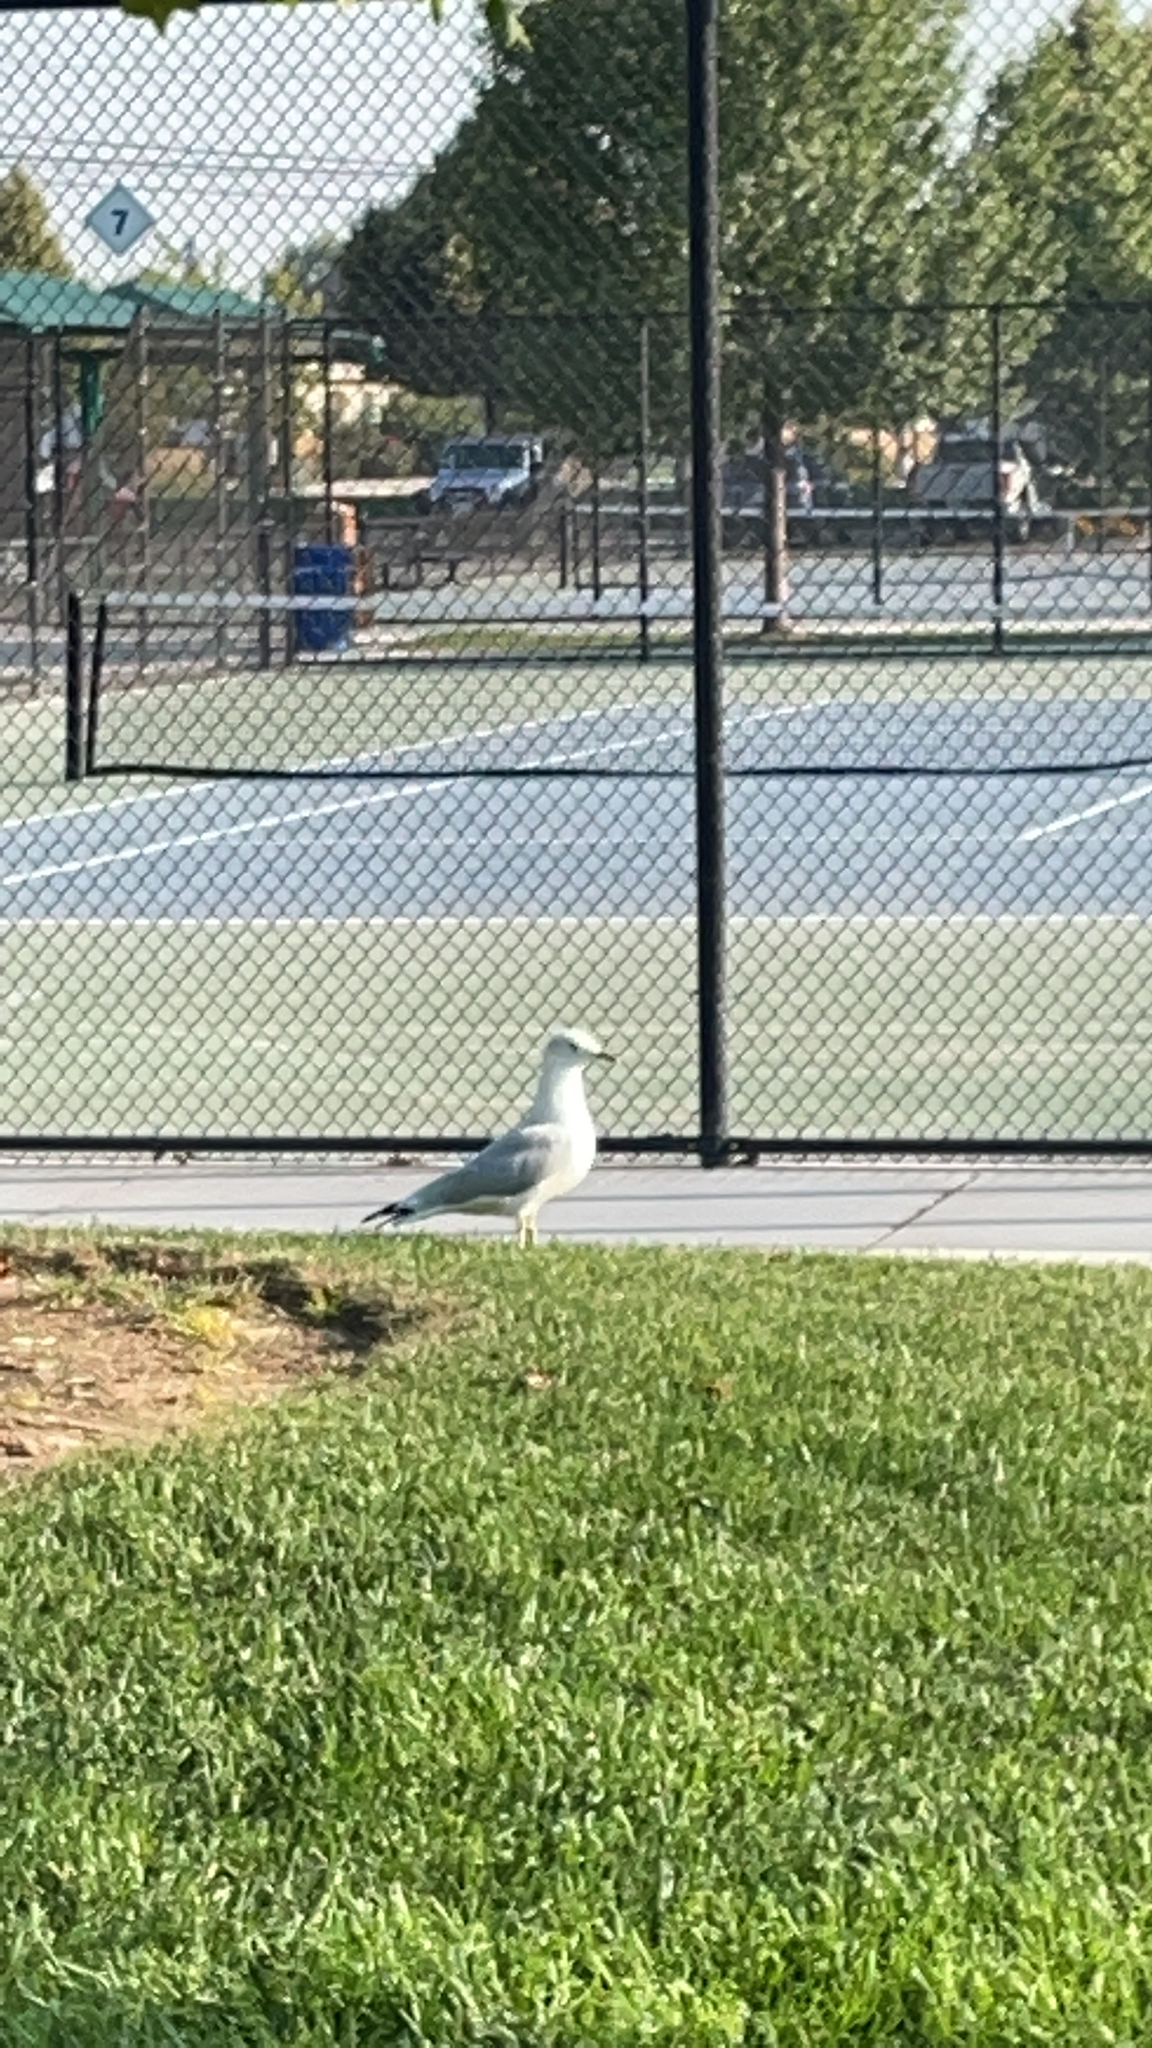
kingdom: Animalia
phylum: Chordata
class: Aves
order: Charadriiformes
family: Laridae
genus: Larus
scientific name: Larus delawarensis
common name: Ring-billed gull
